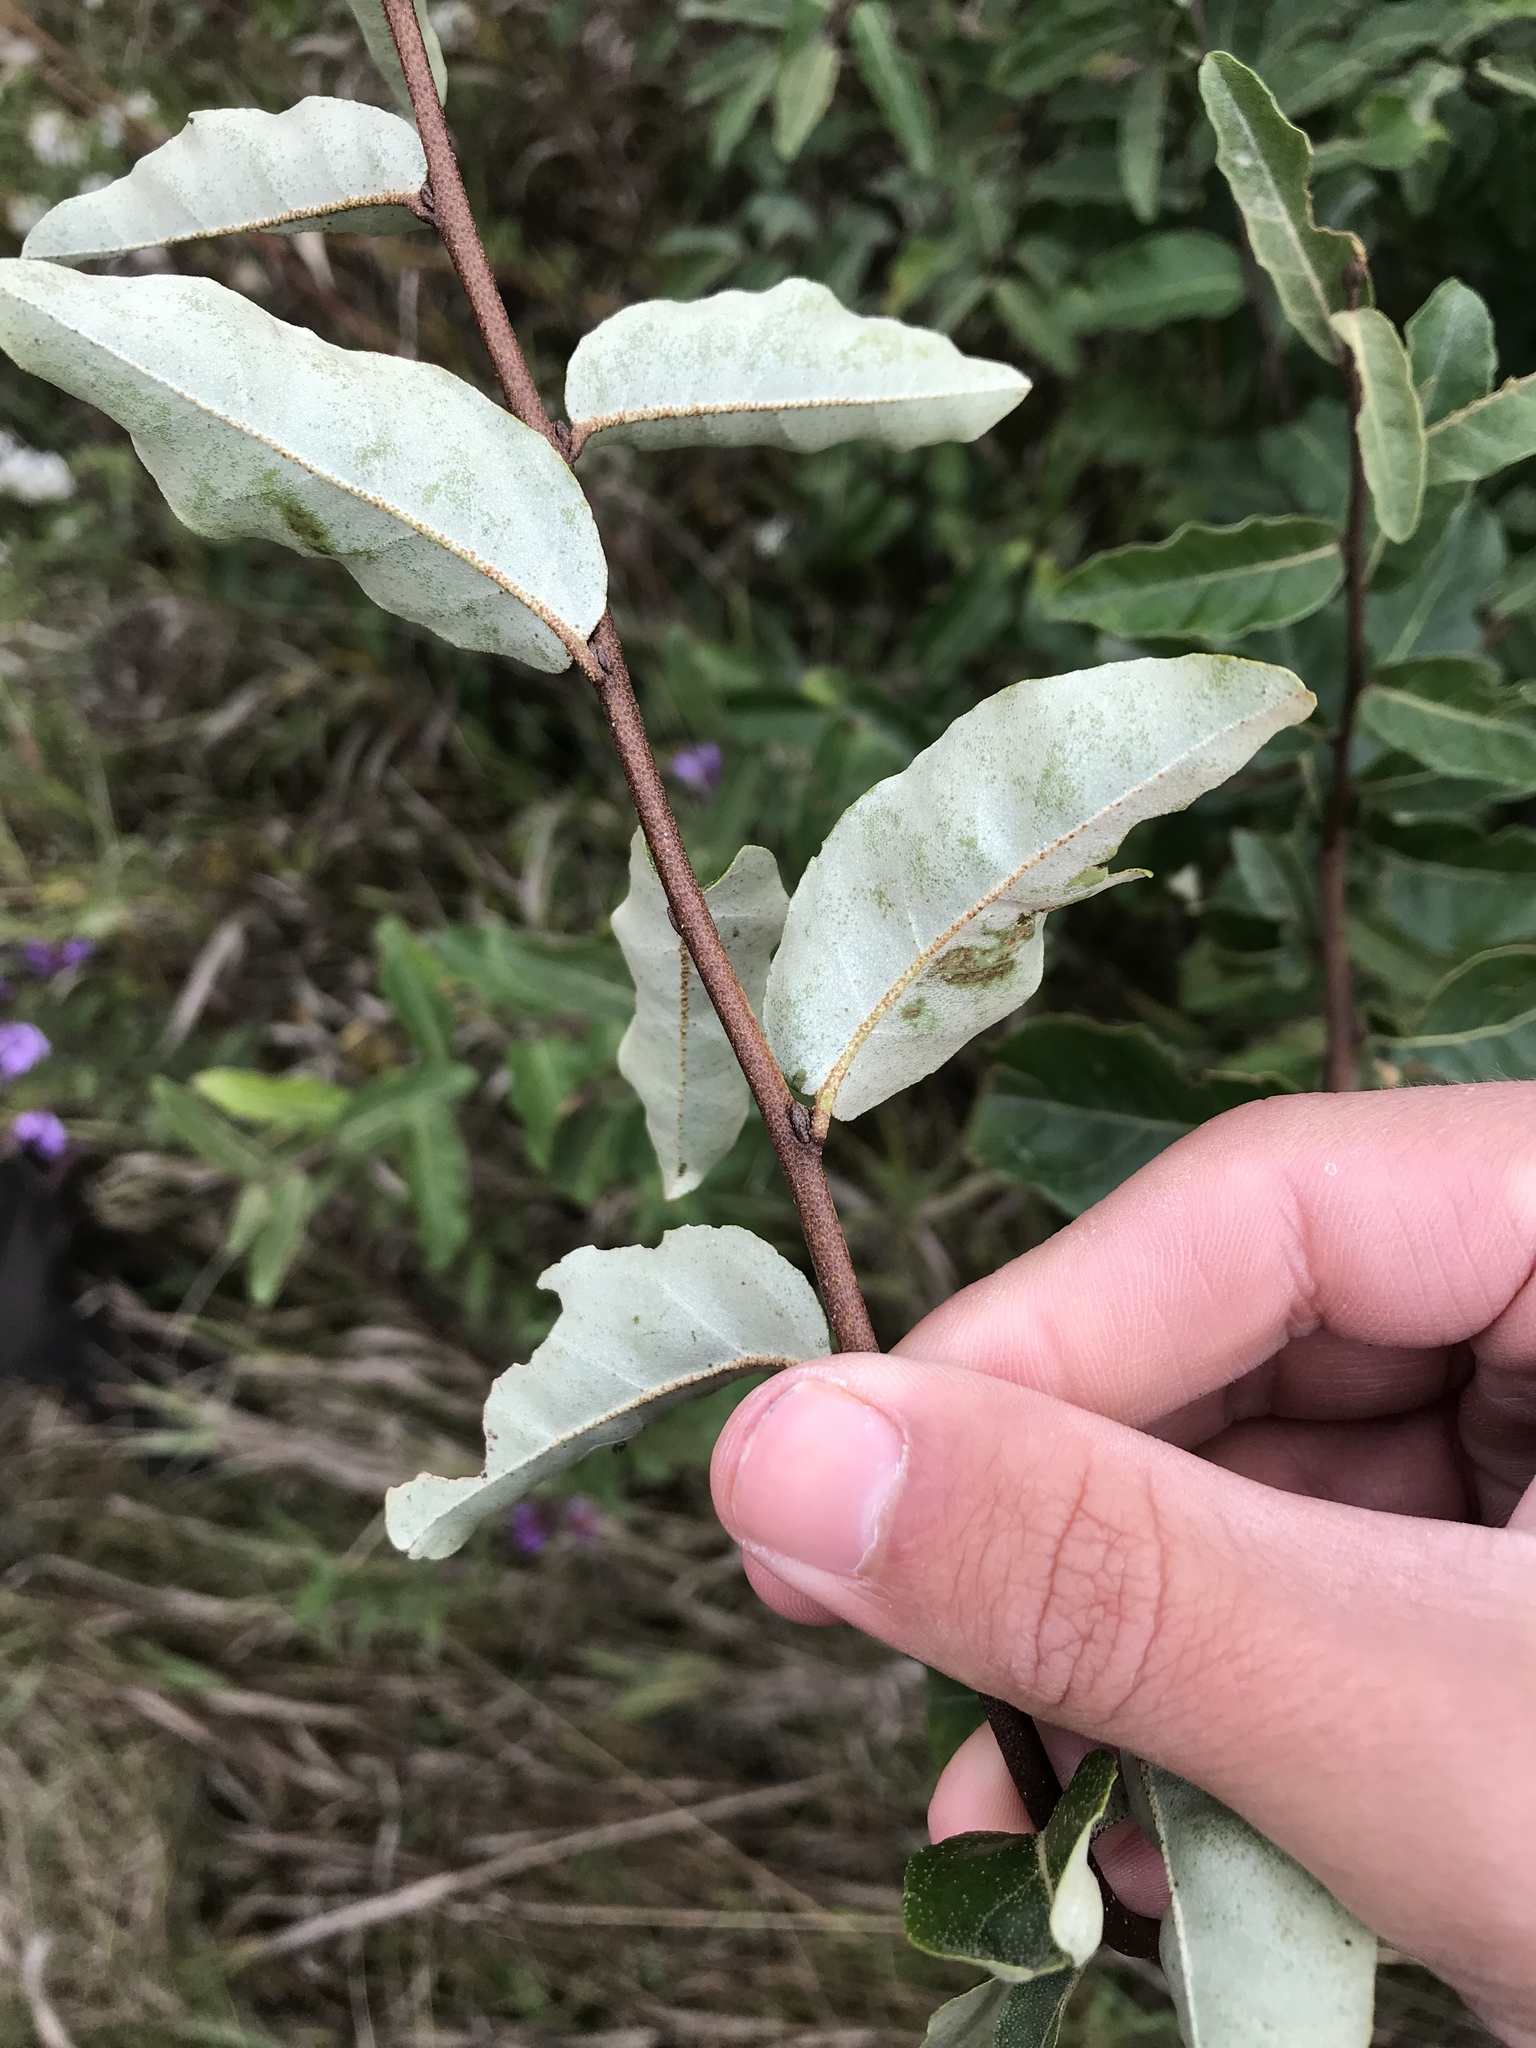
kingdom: Plantae
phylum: Tracheophyta
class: Magnoliopsida
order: Rosales
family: Elaeagnaceae
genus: Elaeagnus
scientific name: Elaeagnus umbellata
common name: Autumn olive
